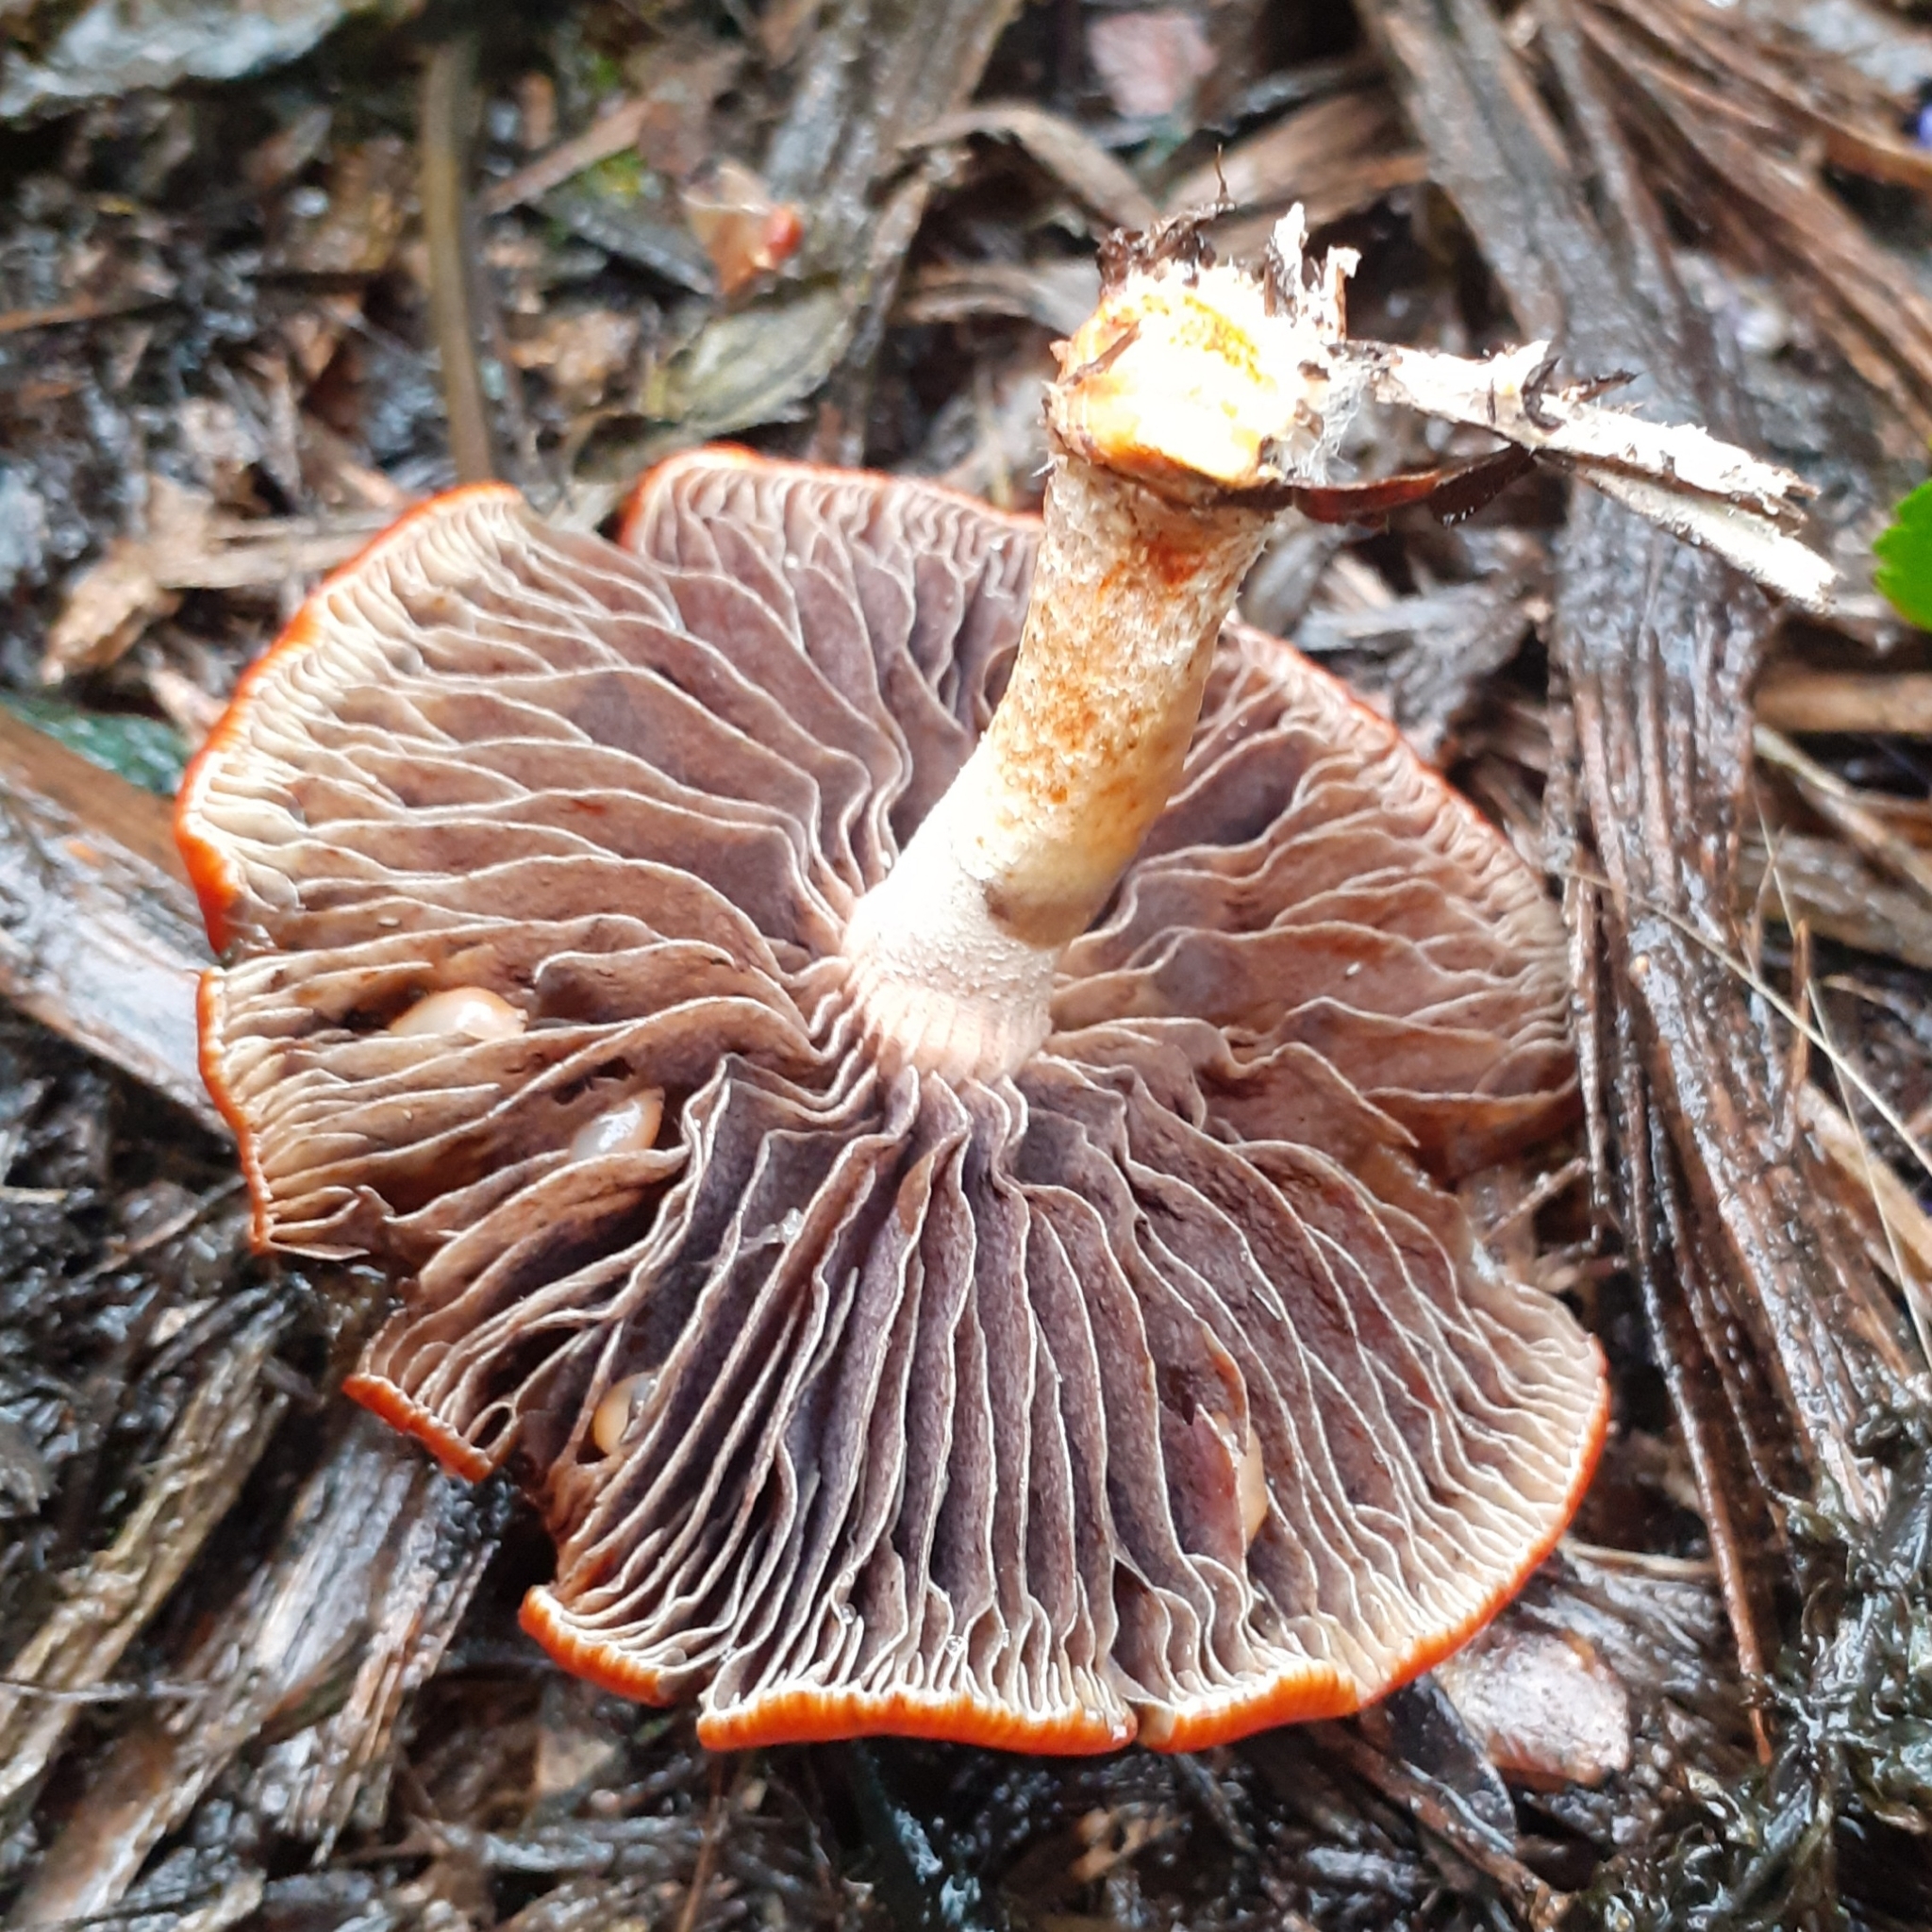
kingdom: Fungi
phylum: Basidiomycota
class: Agaricomycetes
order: Agaricales
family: Strophariaceae
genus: Leratiomyces
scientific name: Leratiomyces ceres
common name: Redlead roundhead
